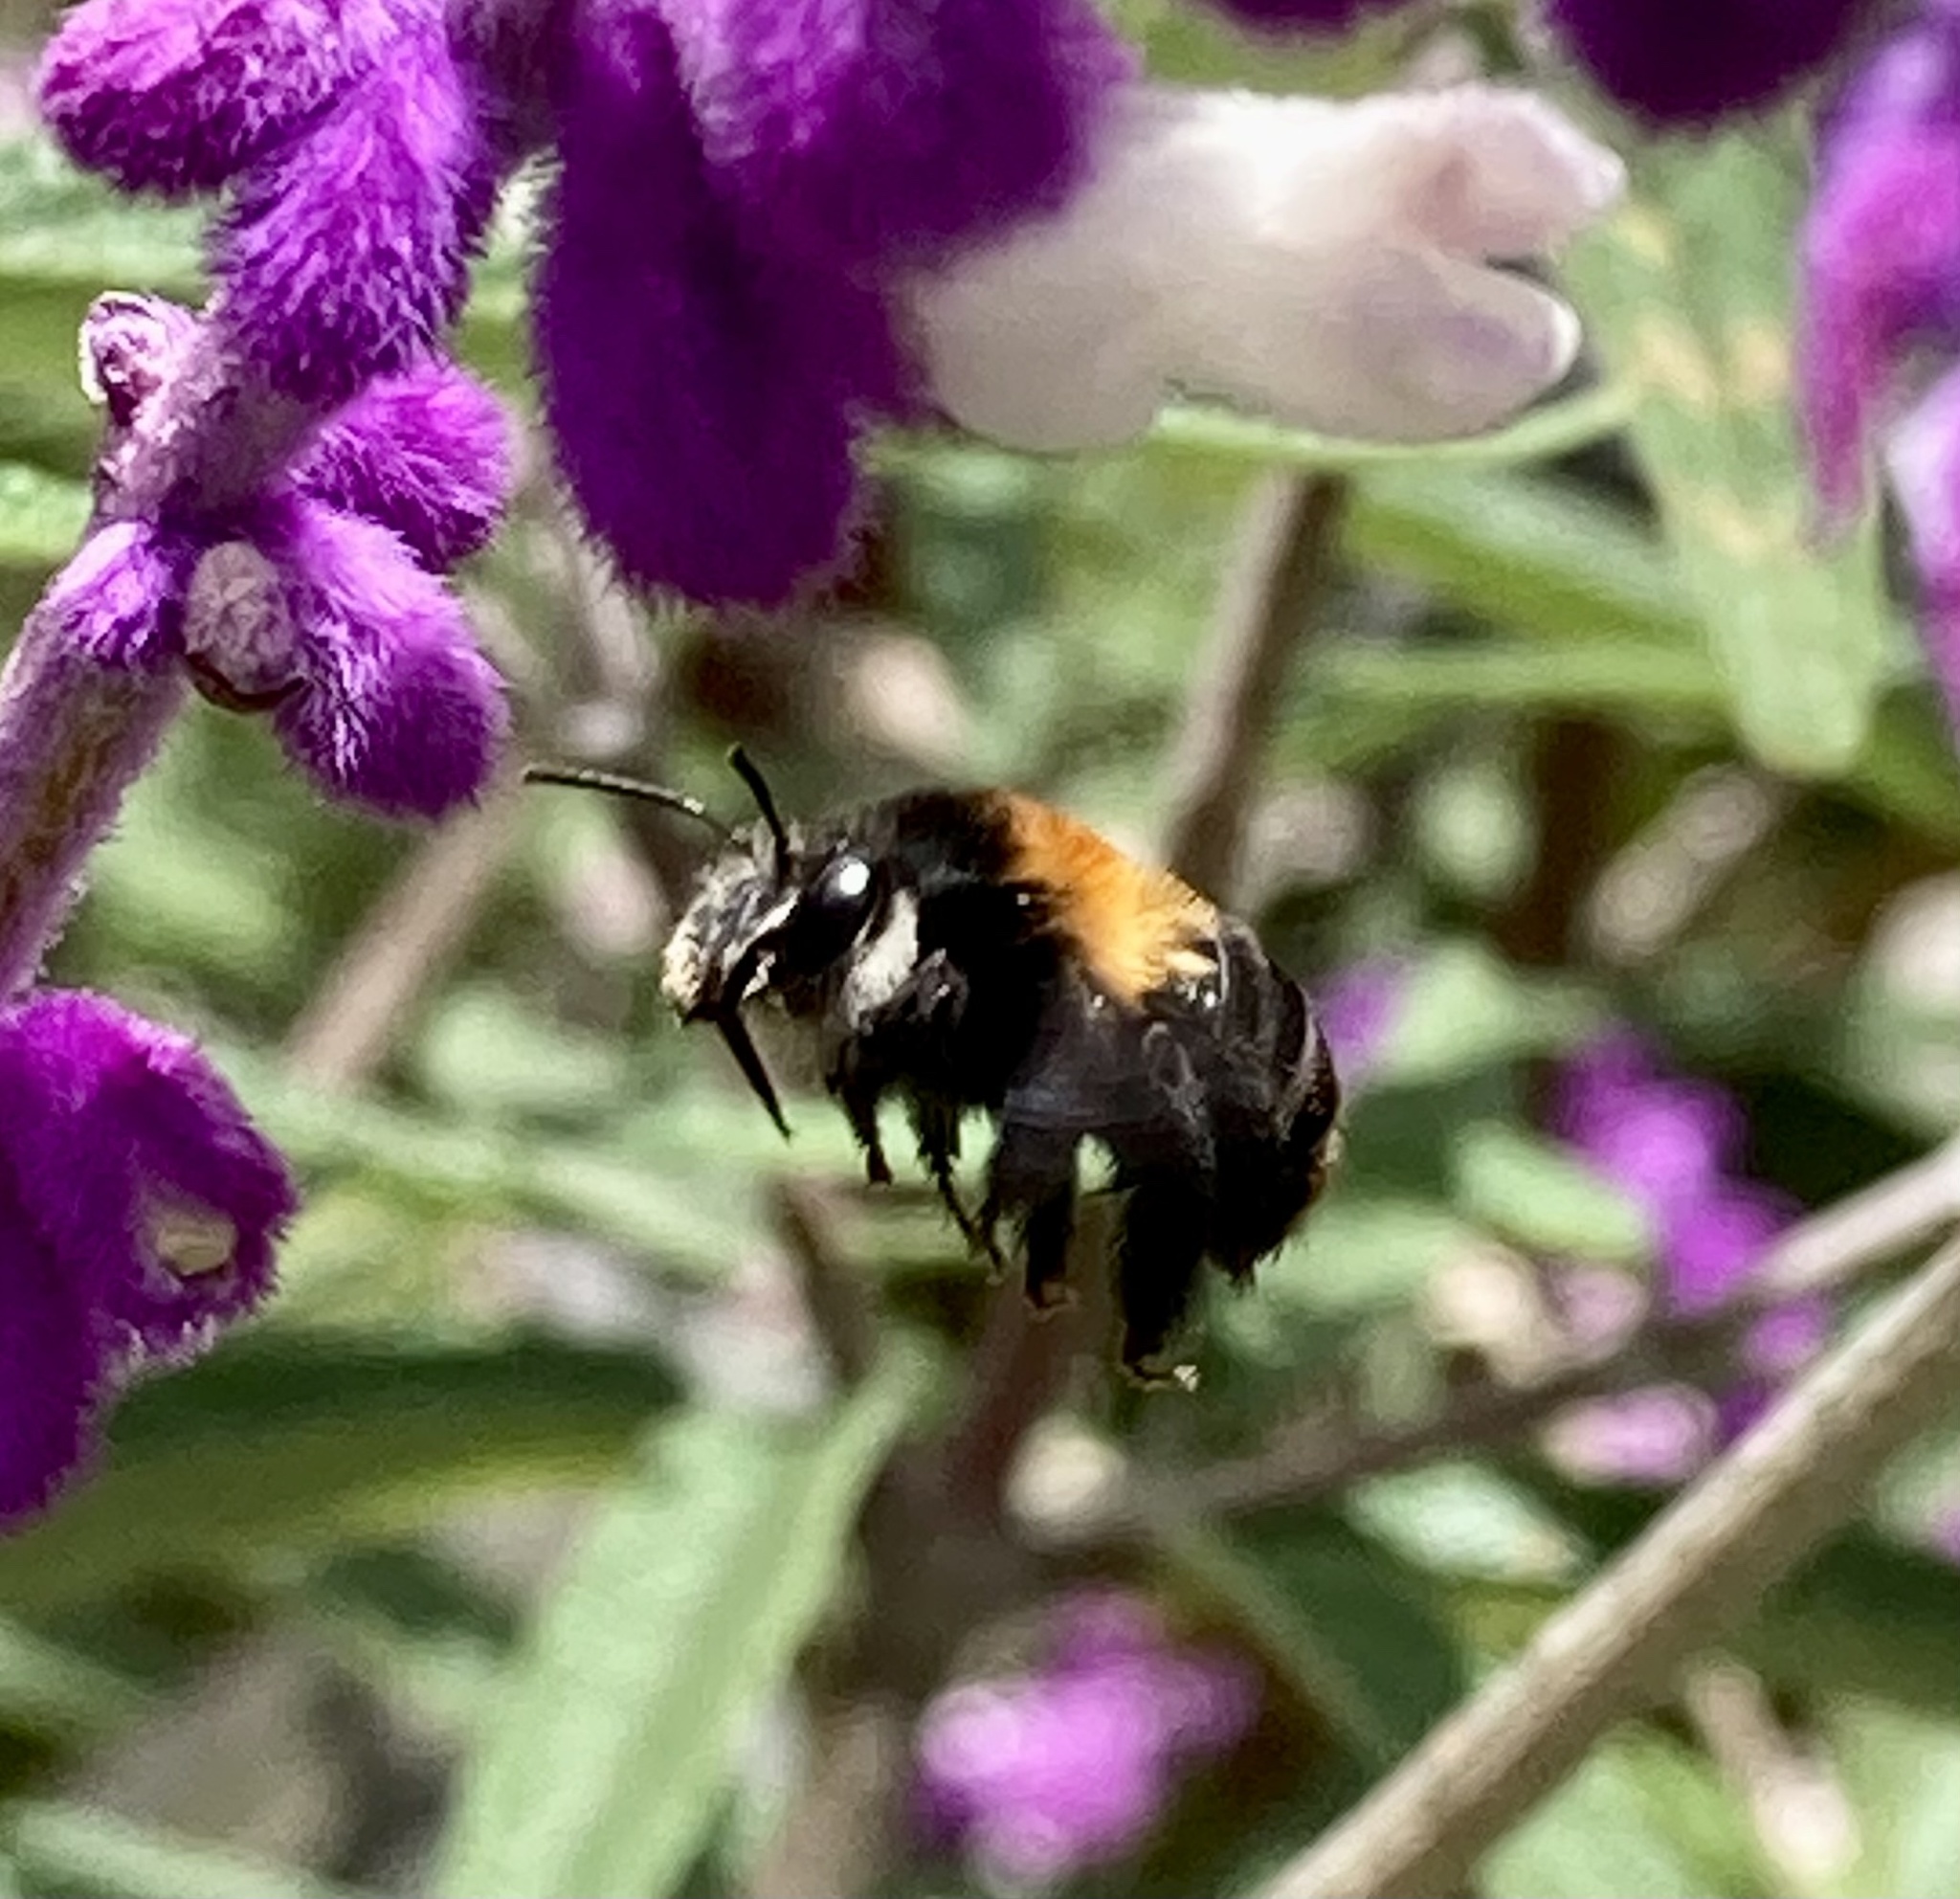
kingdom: Animalia
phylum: Arthropoda
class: Insecta
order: Hymenoptera
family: Apidae
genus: Thygater
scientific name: Thygater aethiops
